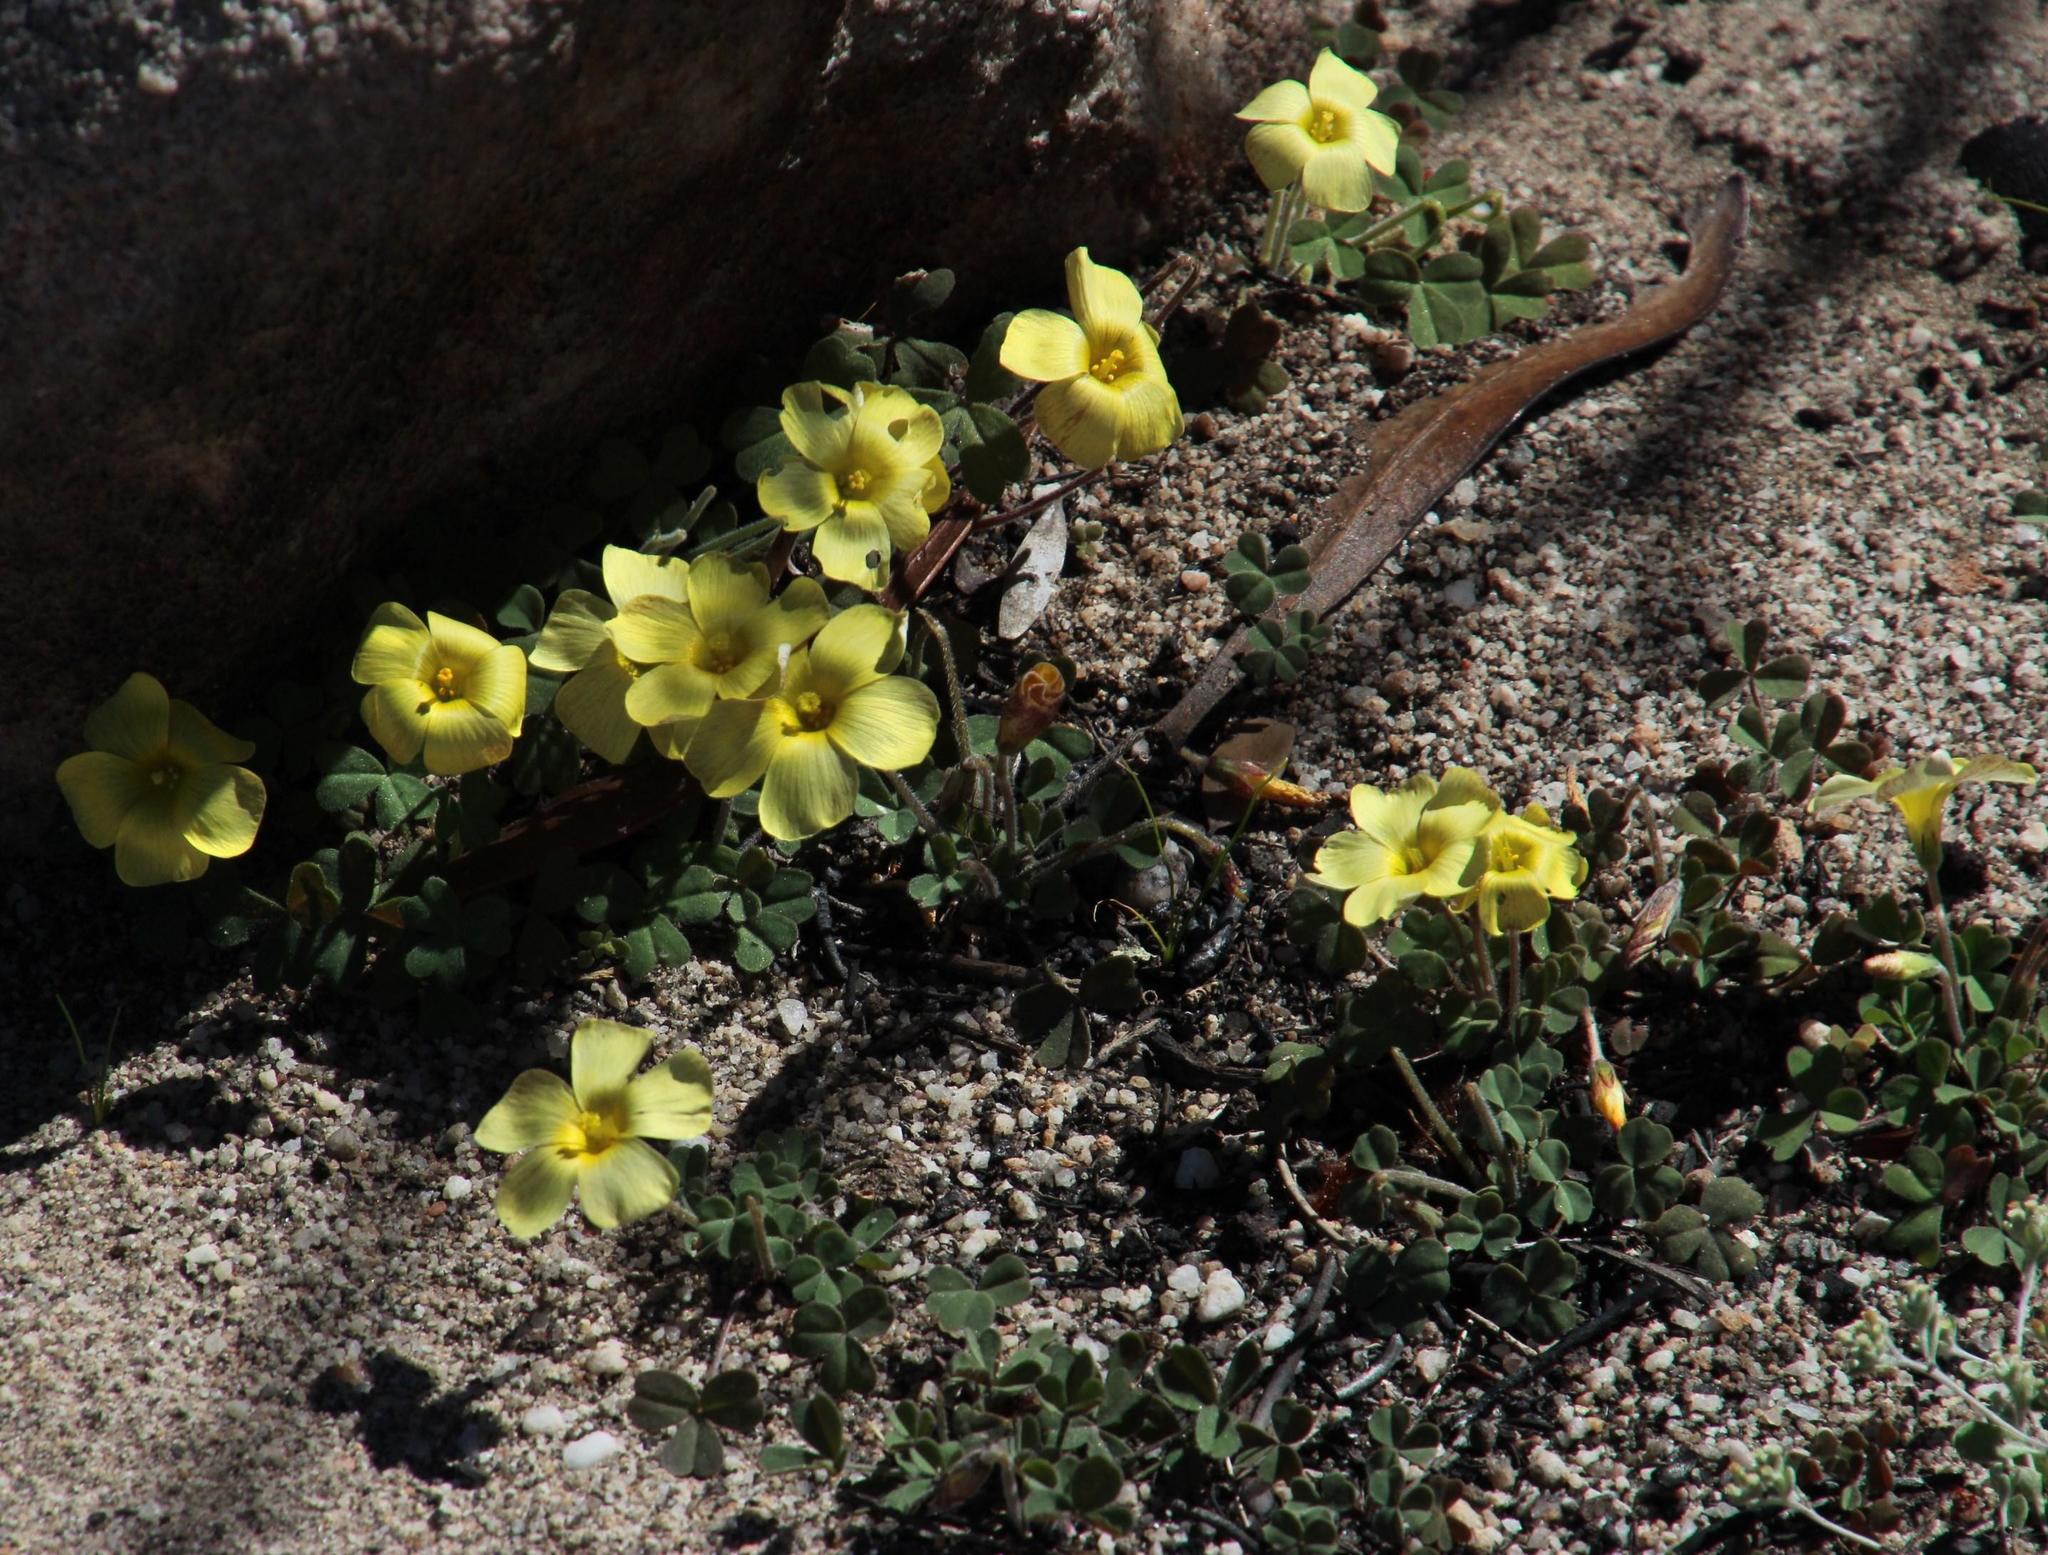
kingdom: Plantae
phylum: Tracheophyta
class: Magnoliopsida
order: Oxalidales
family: Oxalidaceae
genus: Oxalis
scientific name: Oxalis obtusa
